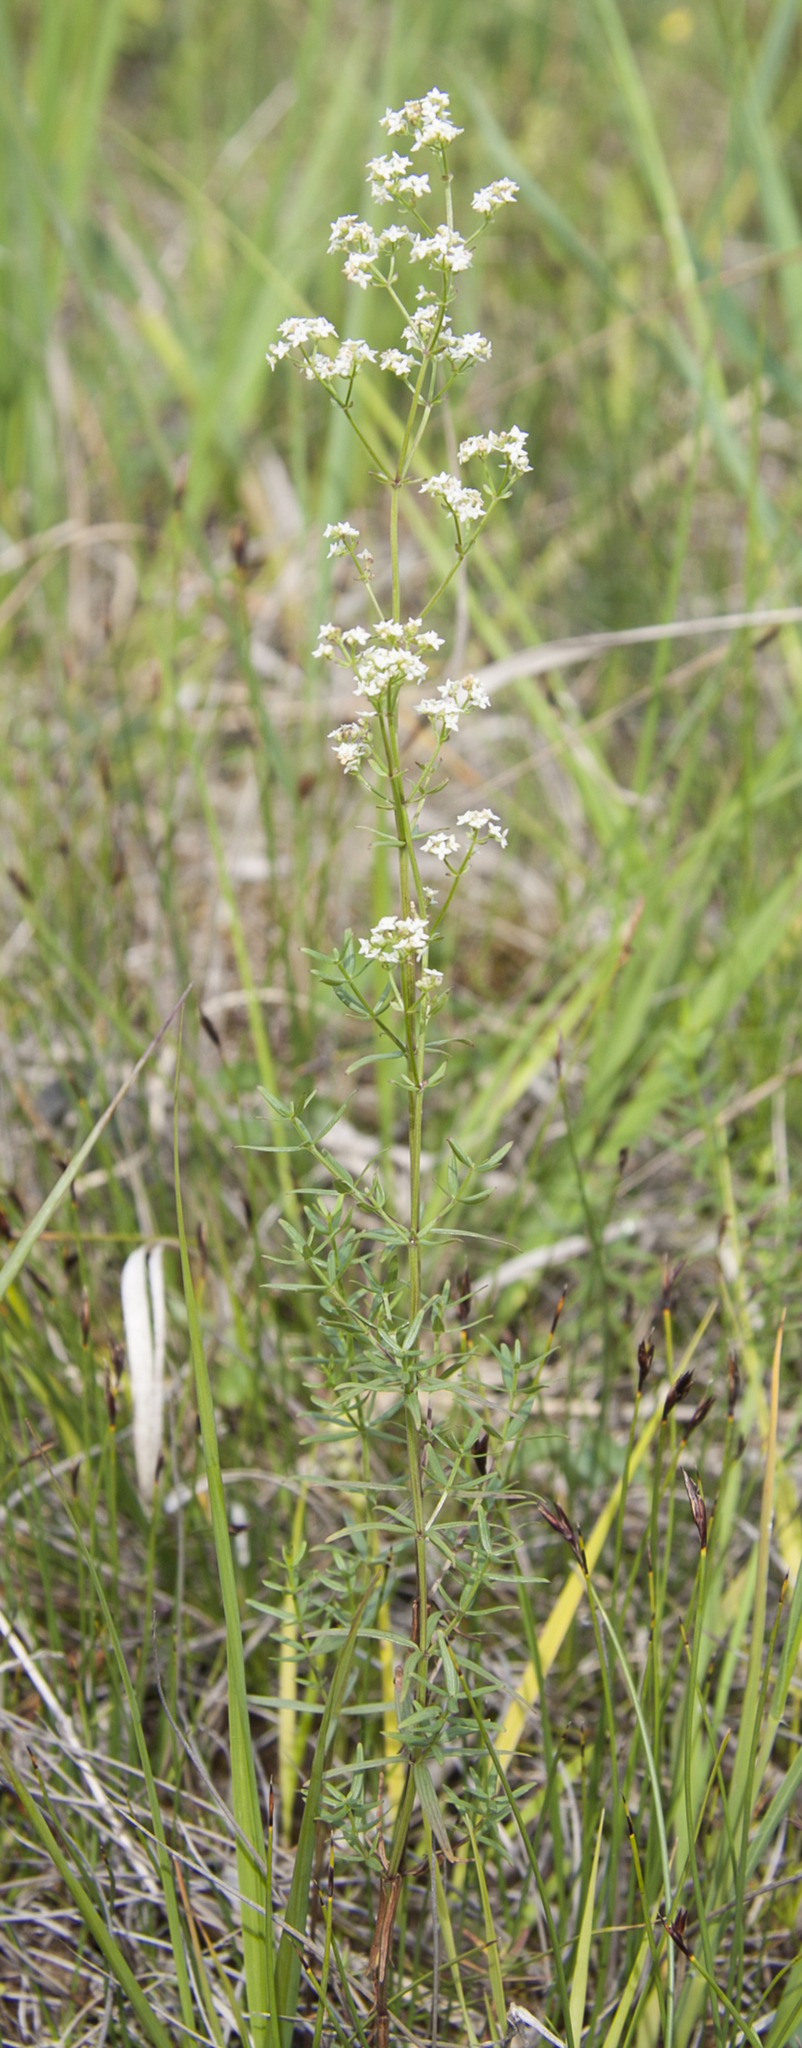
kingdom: Plantae
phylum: Tracheophyta
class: Magnoliopsida
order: Gentianales
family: Rubiaceae
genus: Galium
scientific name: Galium boreale
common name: Northern bedstraw
